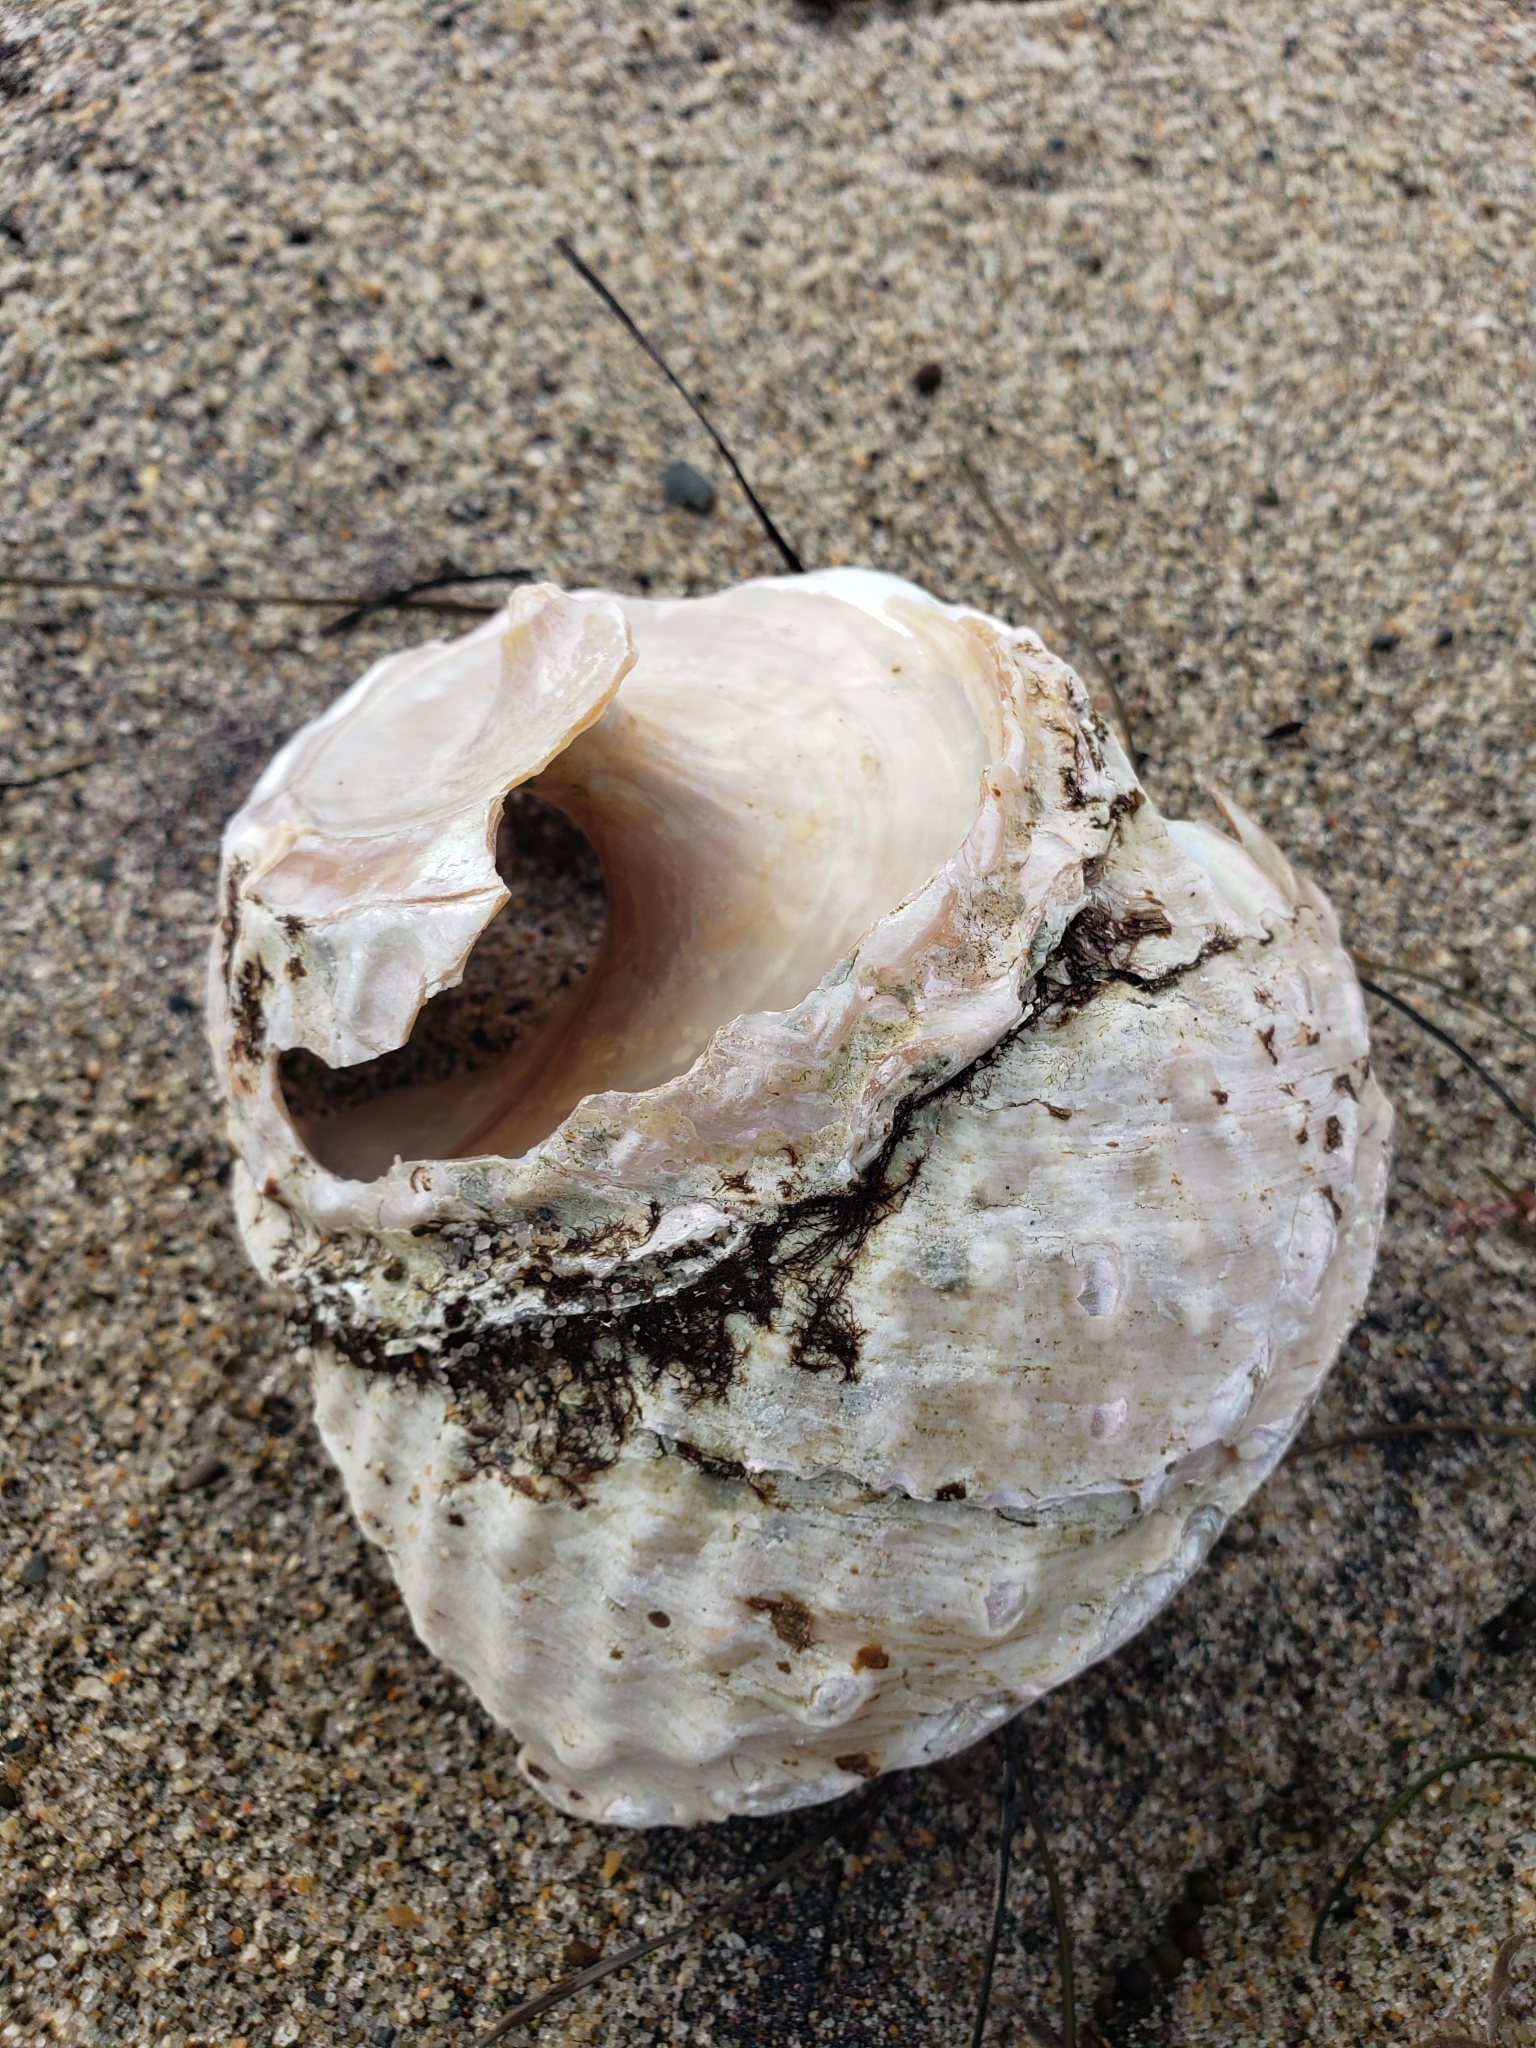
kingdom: Animalia
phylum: Mollusca
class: Gastropoda
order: Trochida
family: Turbinidae
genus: Megastraea
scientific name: Megastraea undosa
